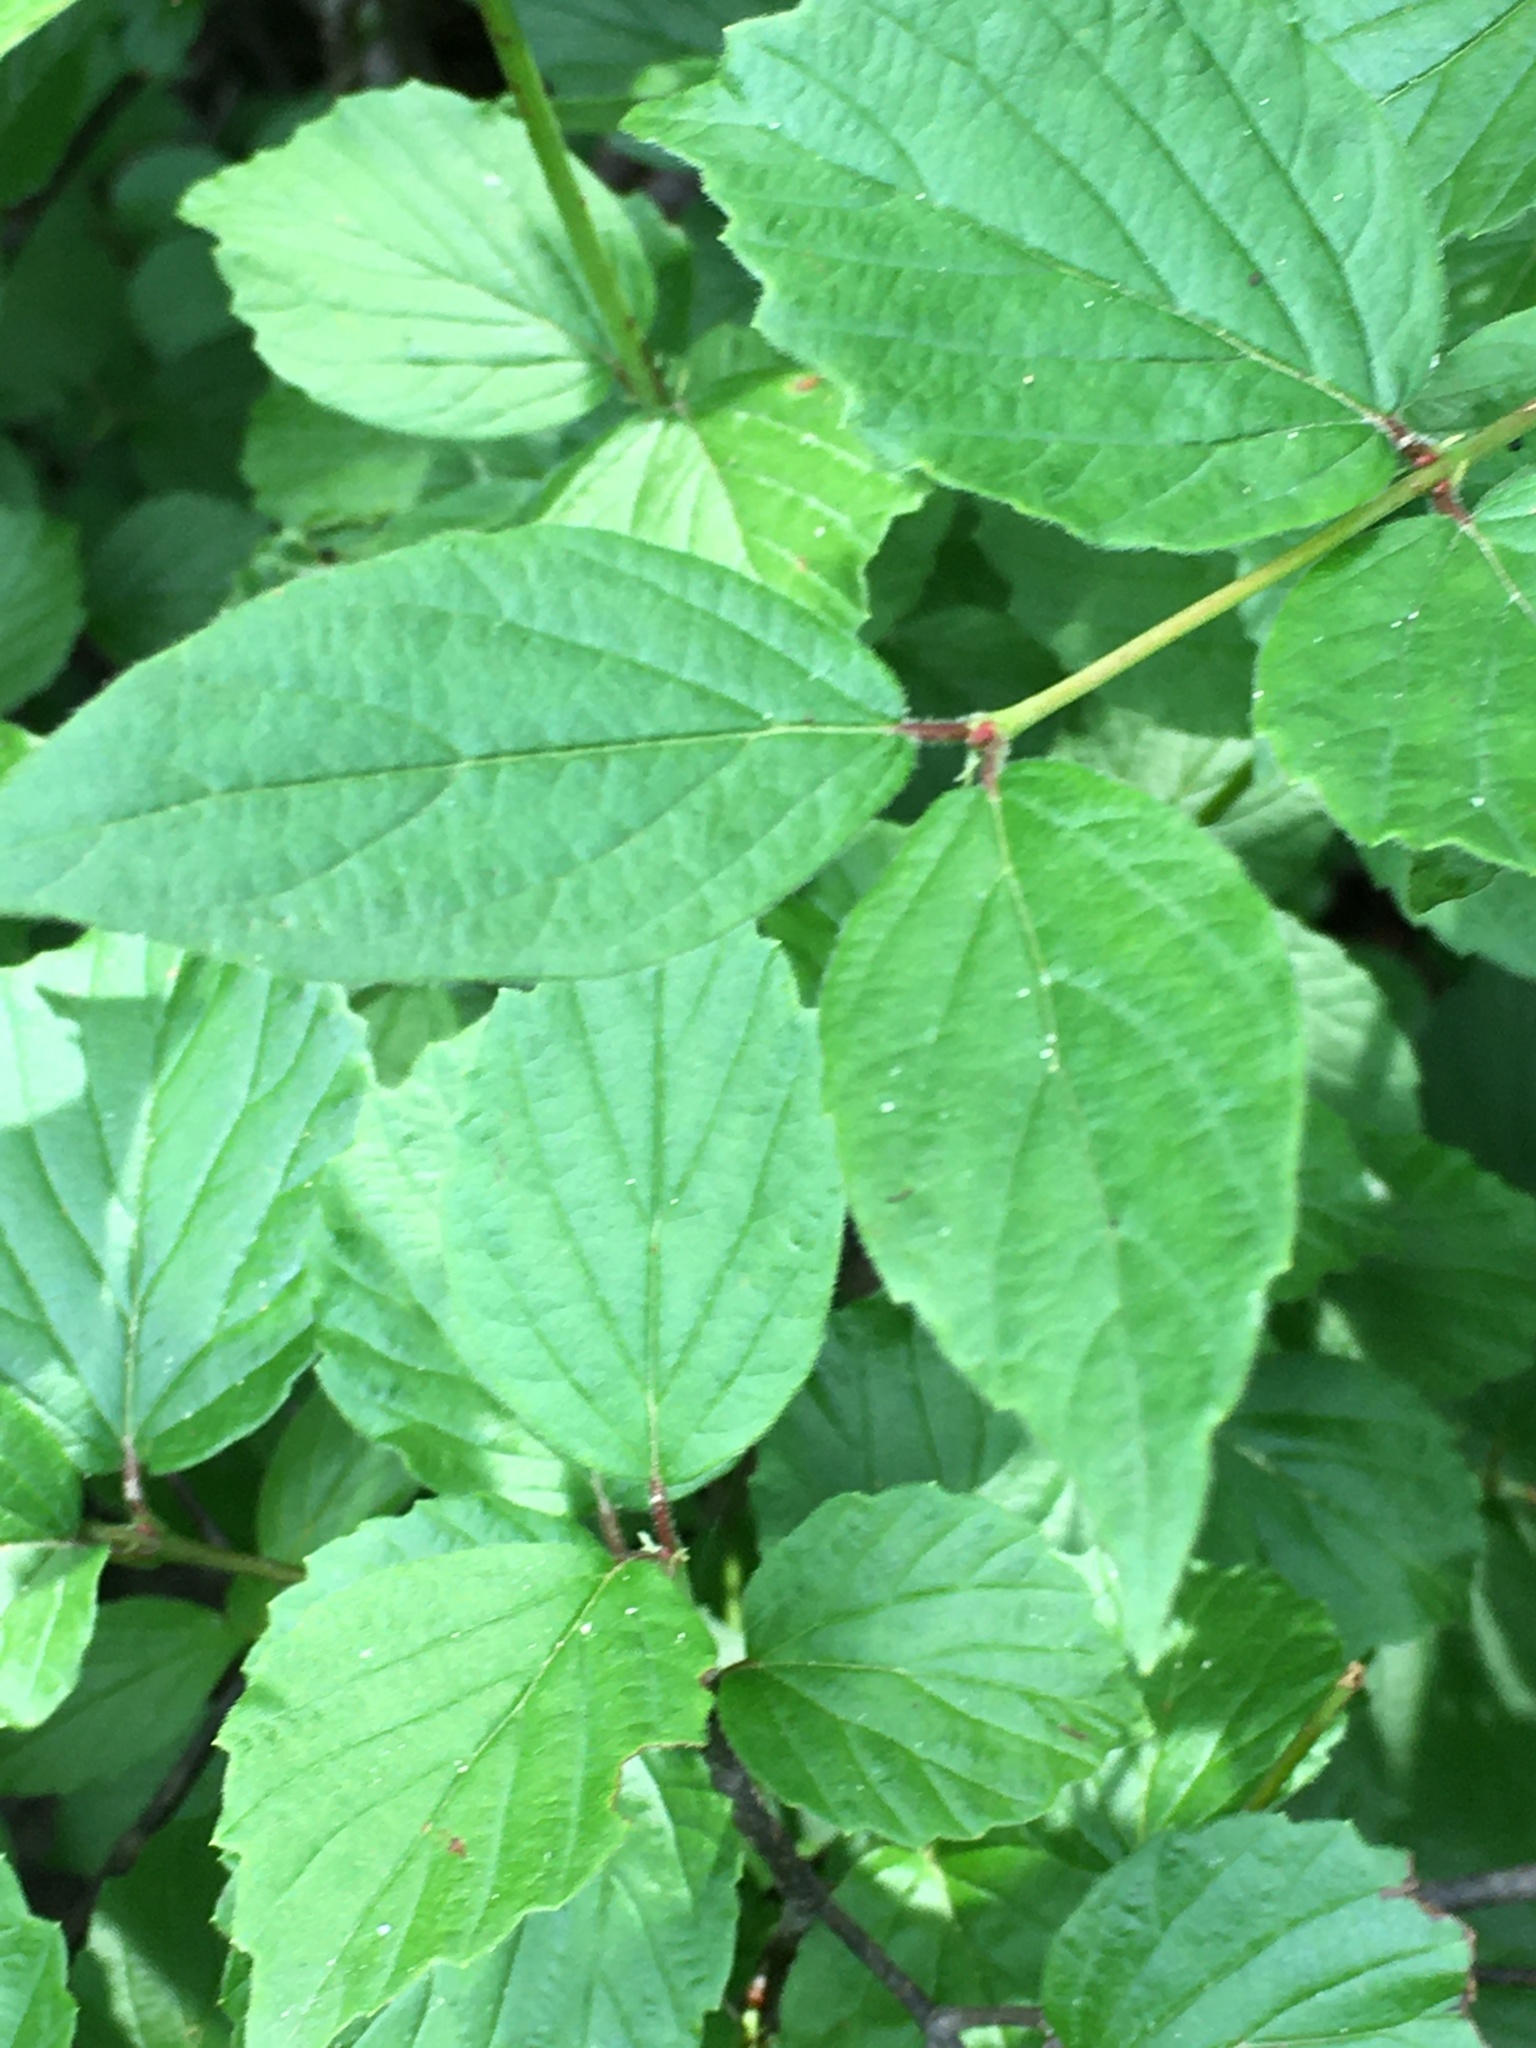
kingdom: Plantae
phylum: Tracheophyta
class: Magnoliopsida
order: Dipsacales
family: Viburnaceae
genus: Viburnum
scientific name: Viburnum rafinesqueanum
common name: Downy arrow-wood
